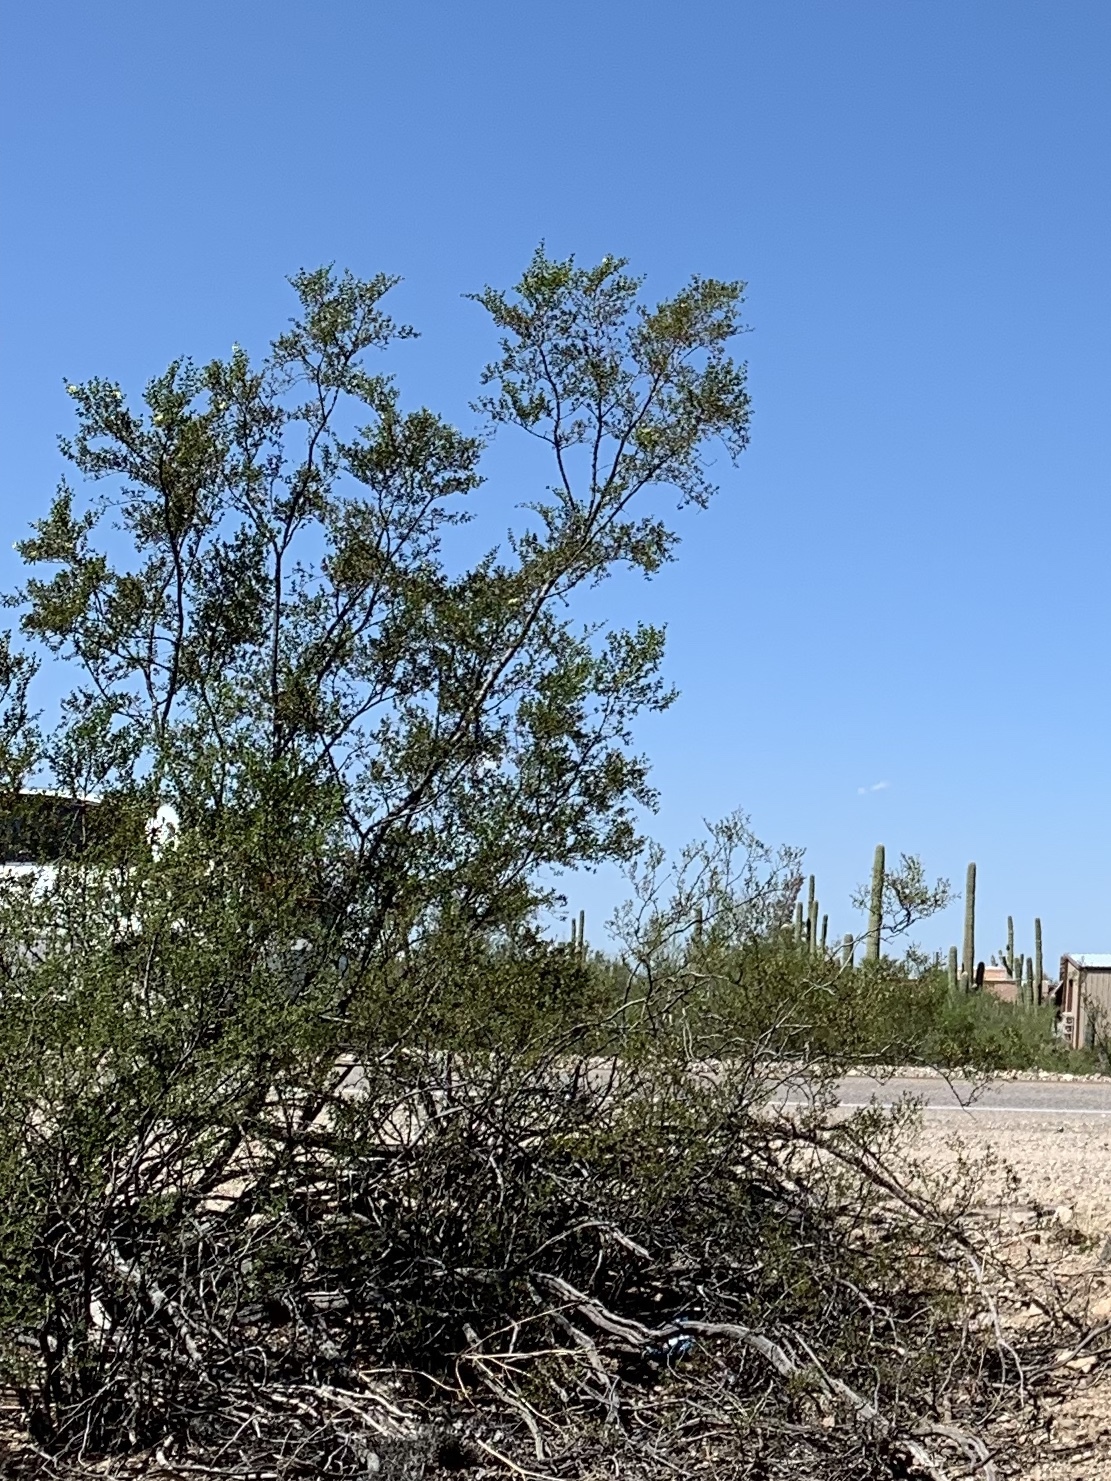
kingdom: Plantae
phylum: Tracheophyta
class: Magnoliopsida
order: Zygophyllales
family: Zygophyllaceae
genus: Larrea
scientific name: Larrea tridentata
